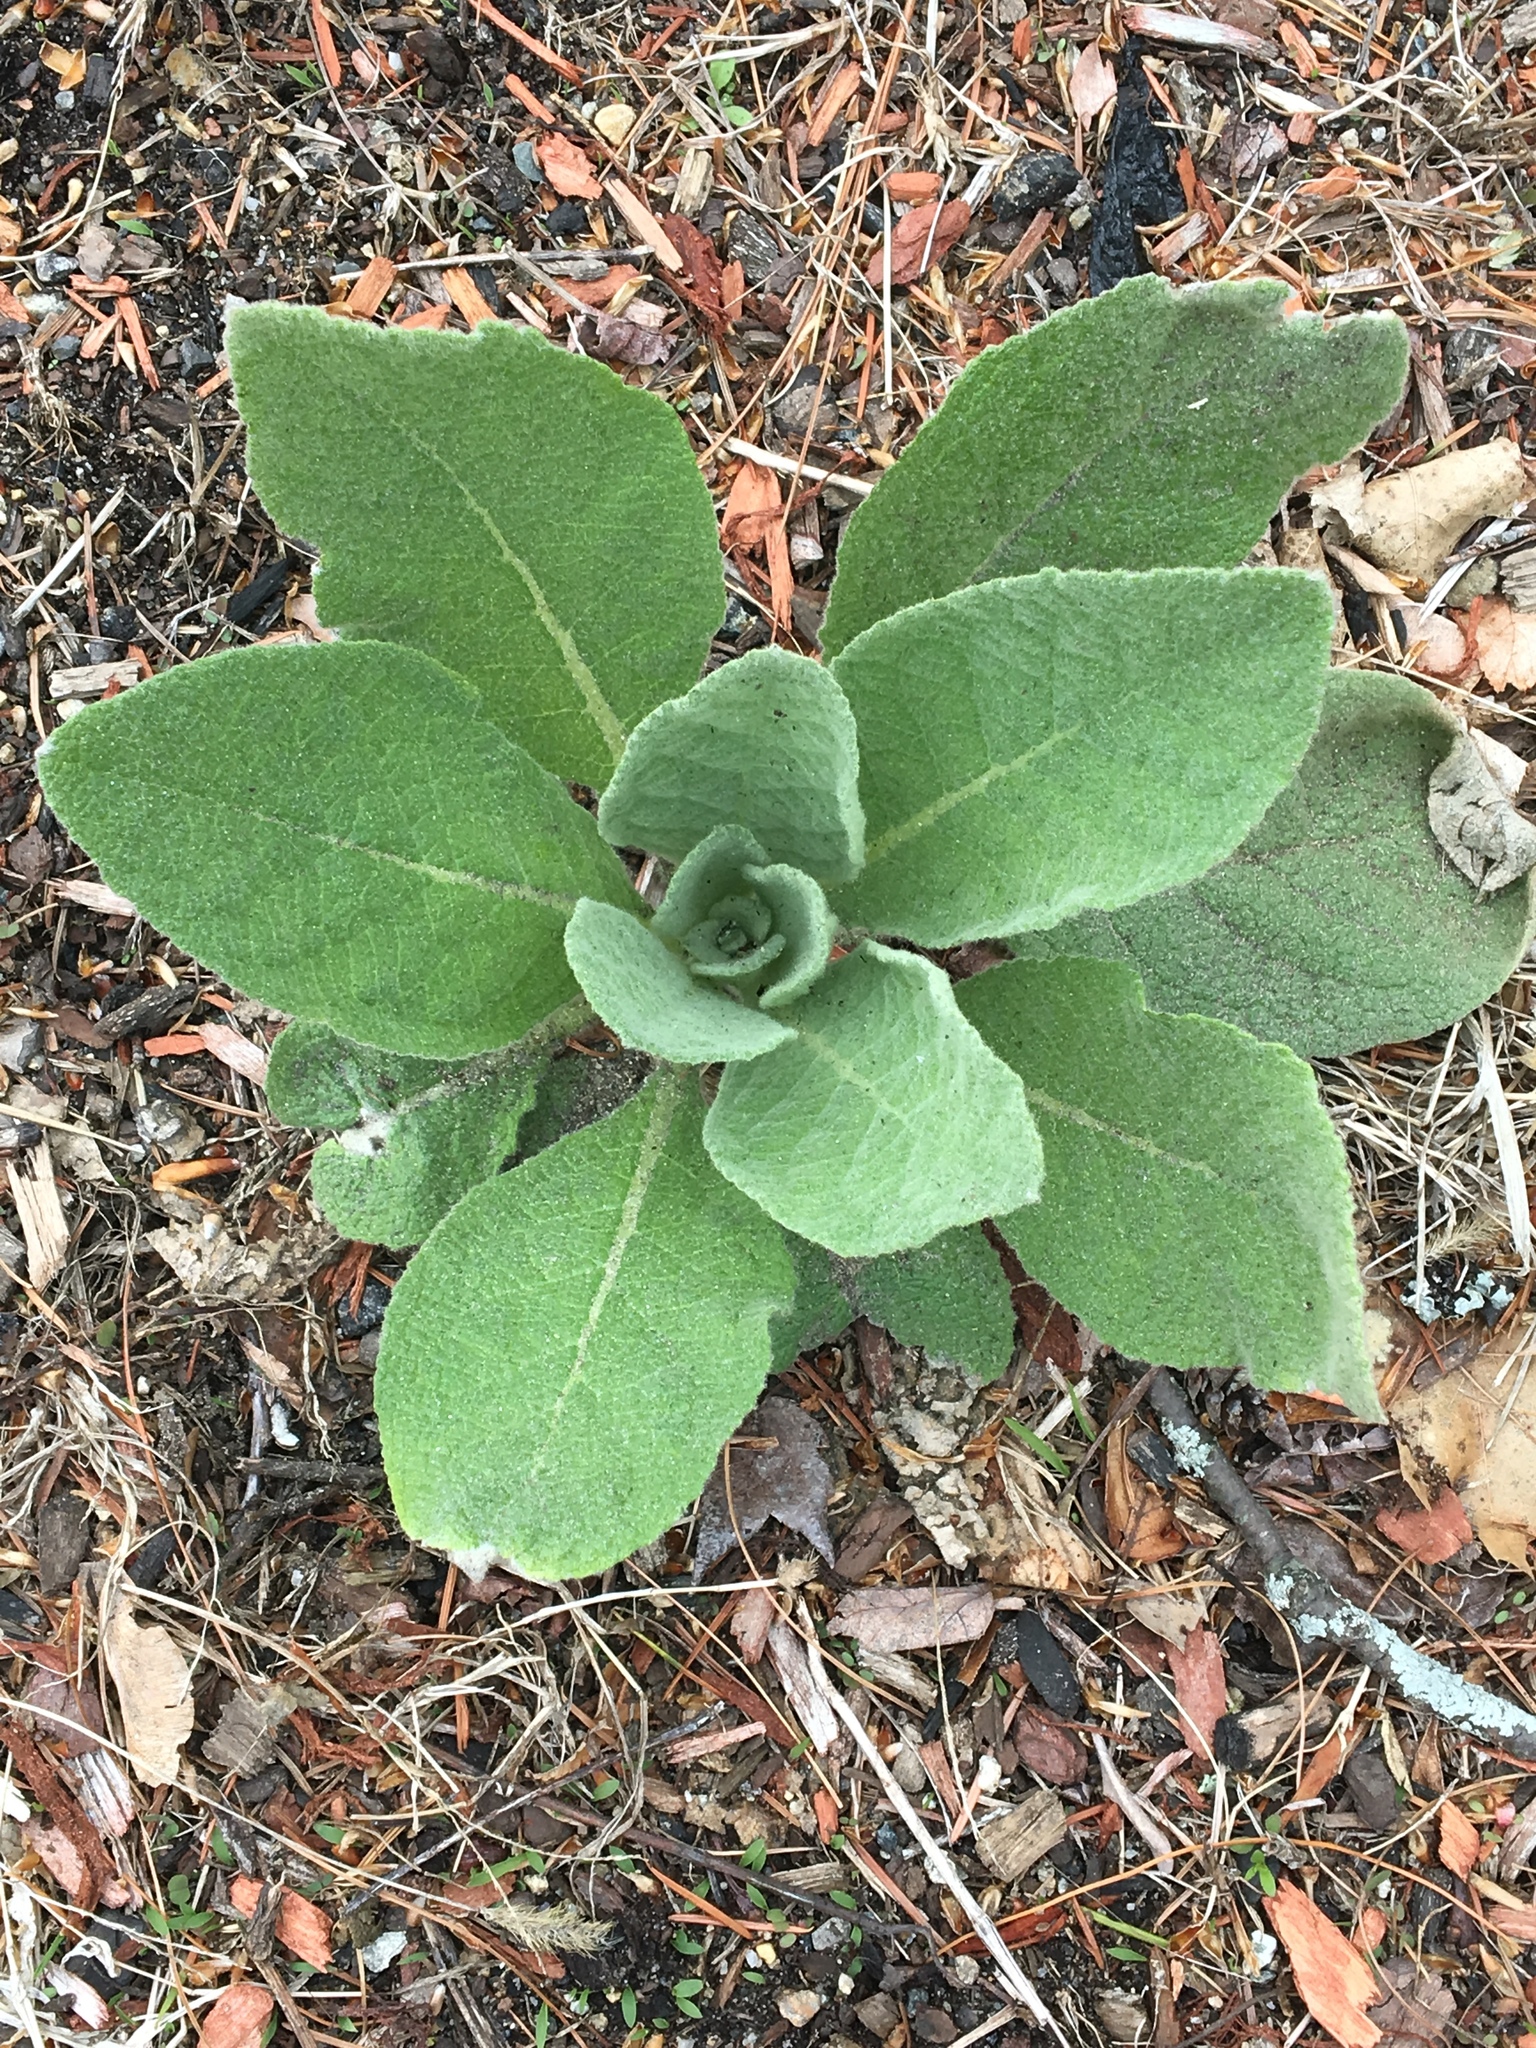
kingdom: Plantae
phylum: Tracheophyta
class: Magnoliopsida
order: Lamiales
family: Scrophulariaceae
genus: Verbascum
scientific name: Verbascum thapsus
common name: Common mullein
